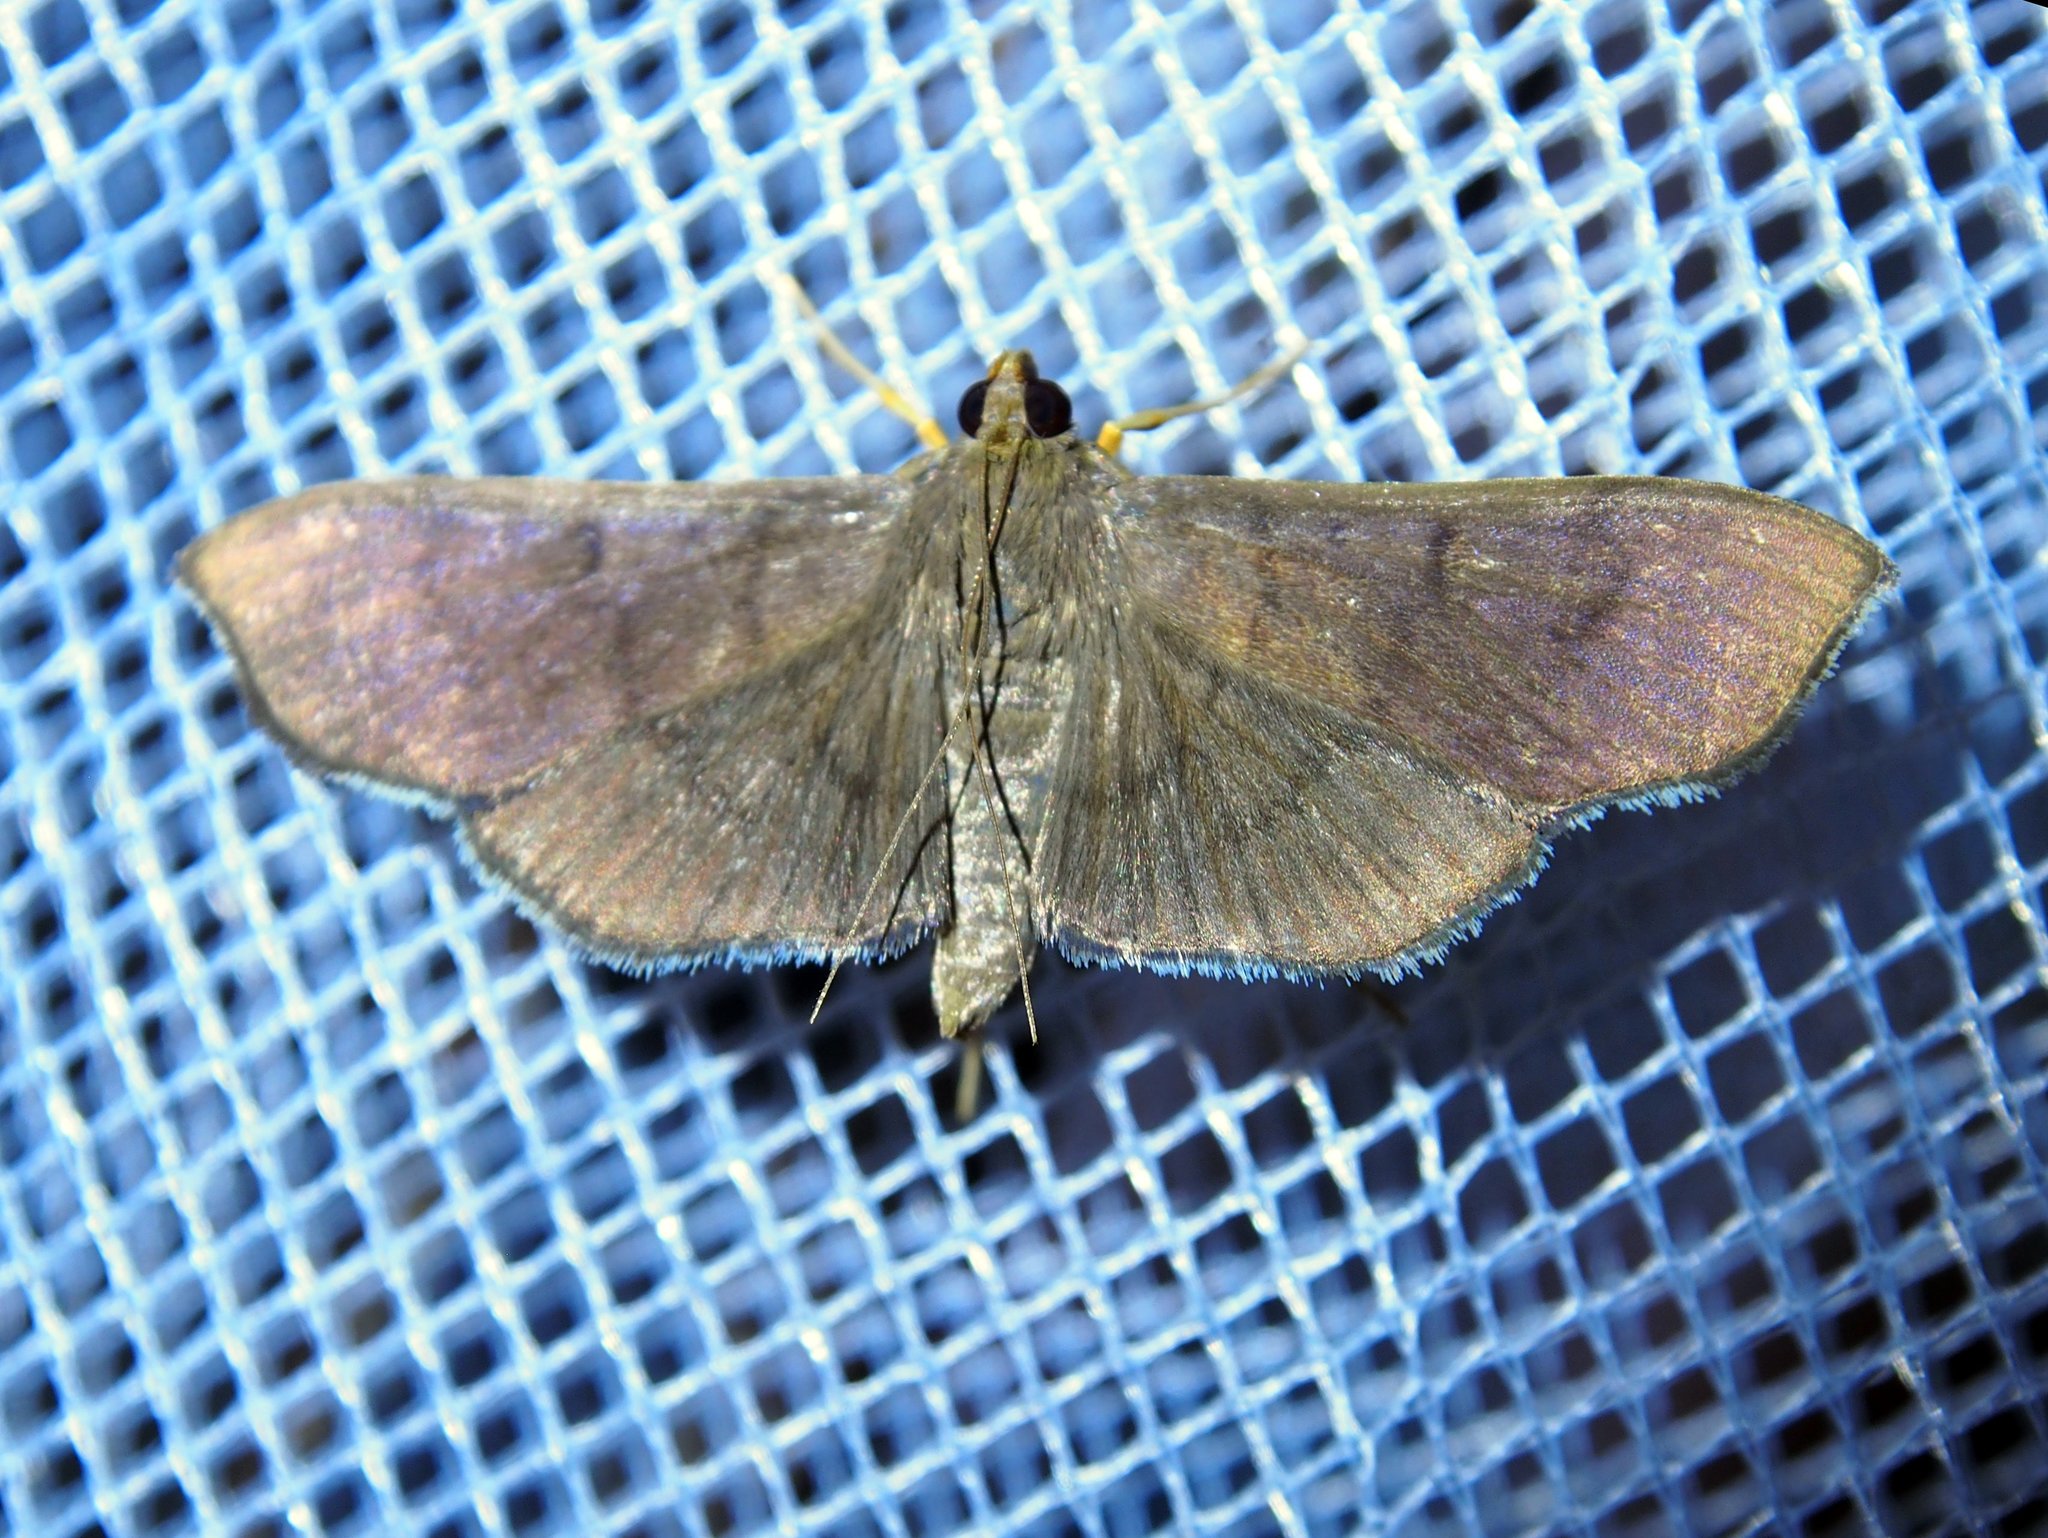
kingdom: Animalia
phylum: Arthropoda
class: Insecta
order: Lepidoptera
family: Crambidae
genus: Omiodes
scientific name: Omiodes humeralis
